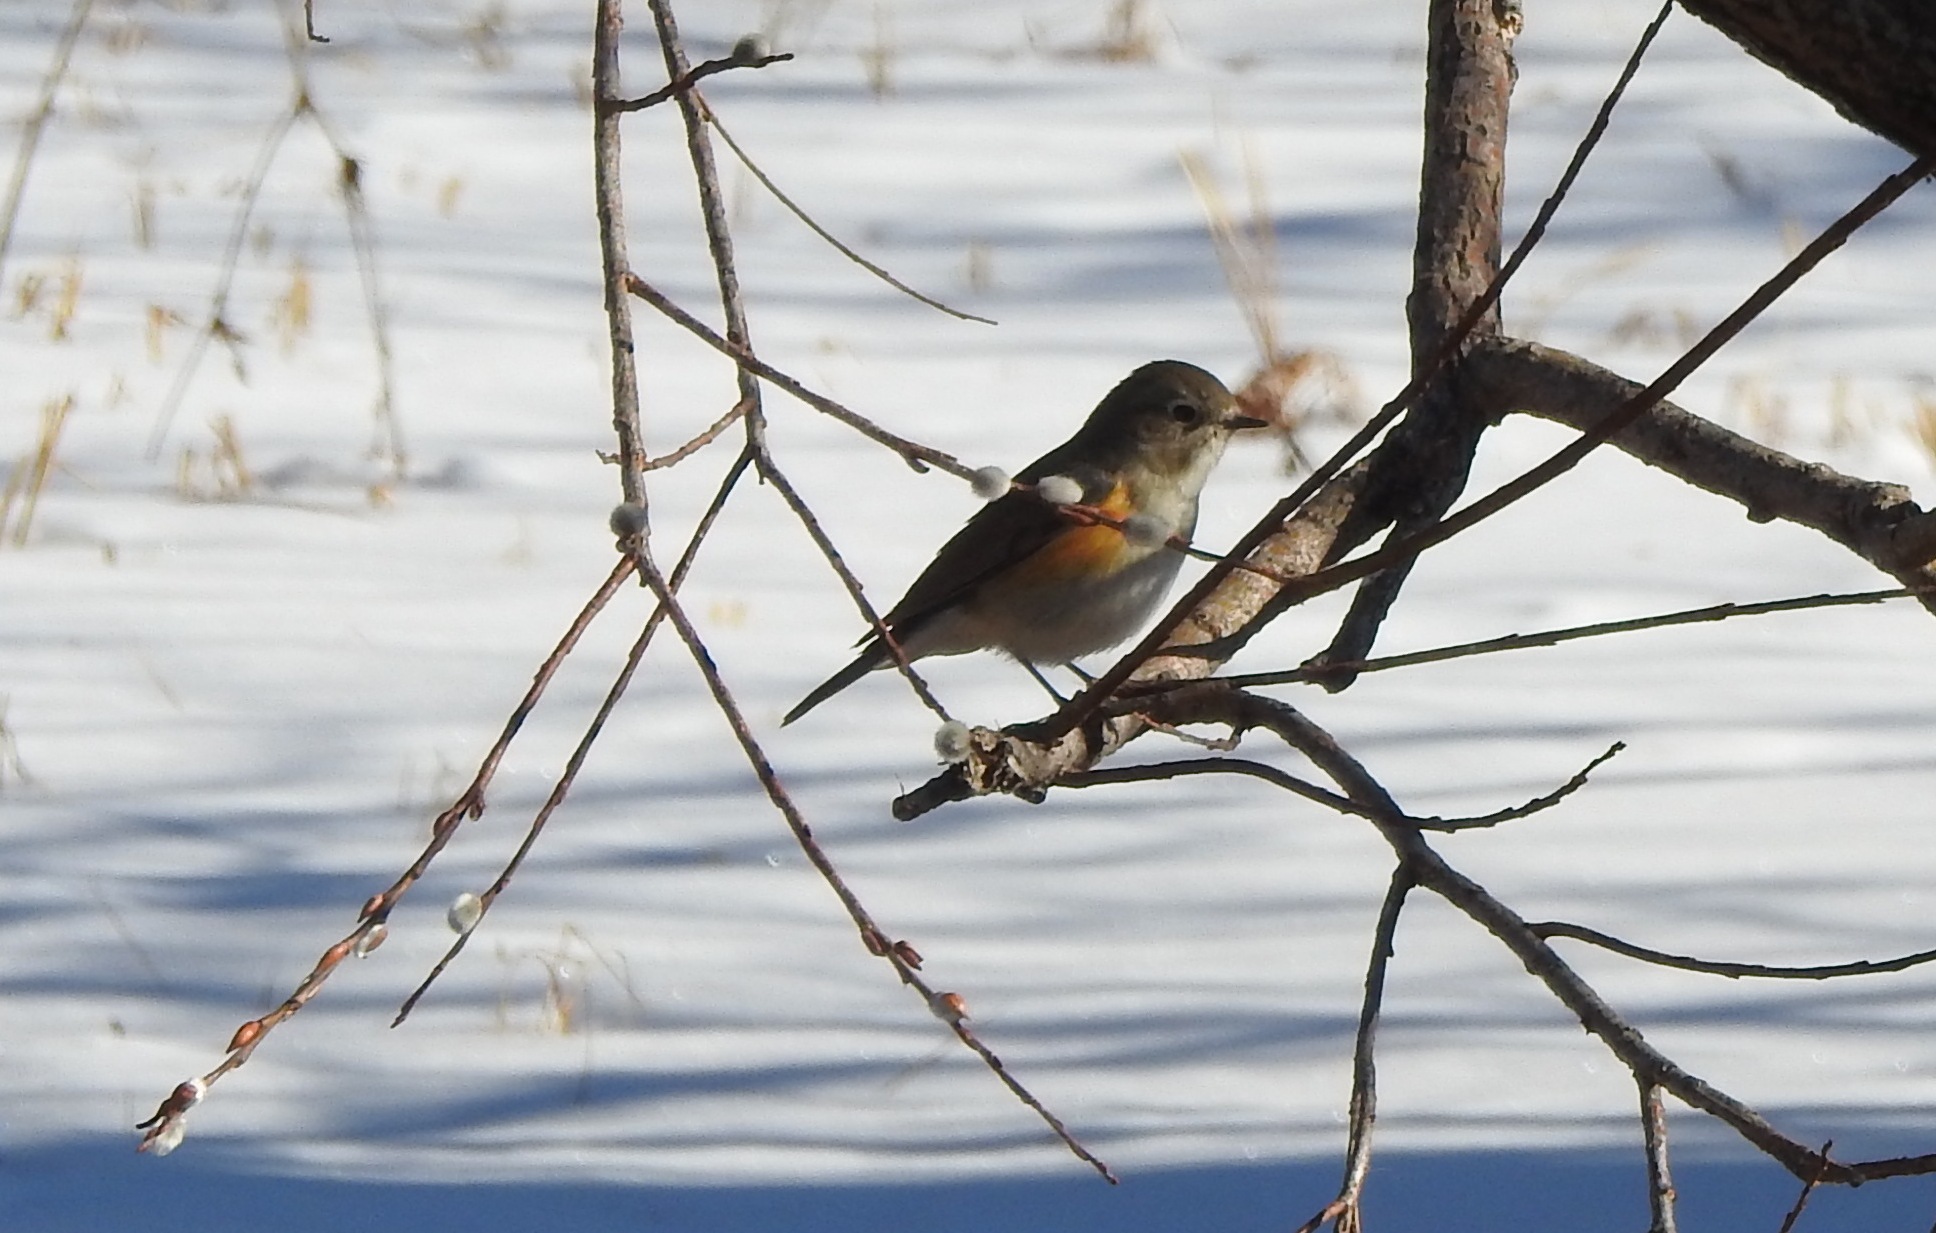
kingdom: Animalia
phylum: Chordata
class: Aves
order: Passeriformes
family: Muscicapidae
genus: Tarsiger
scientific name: Tarsiger cyanurus
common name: Red-flanked bluetail
